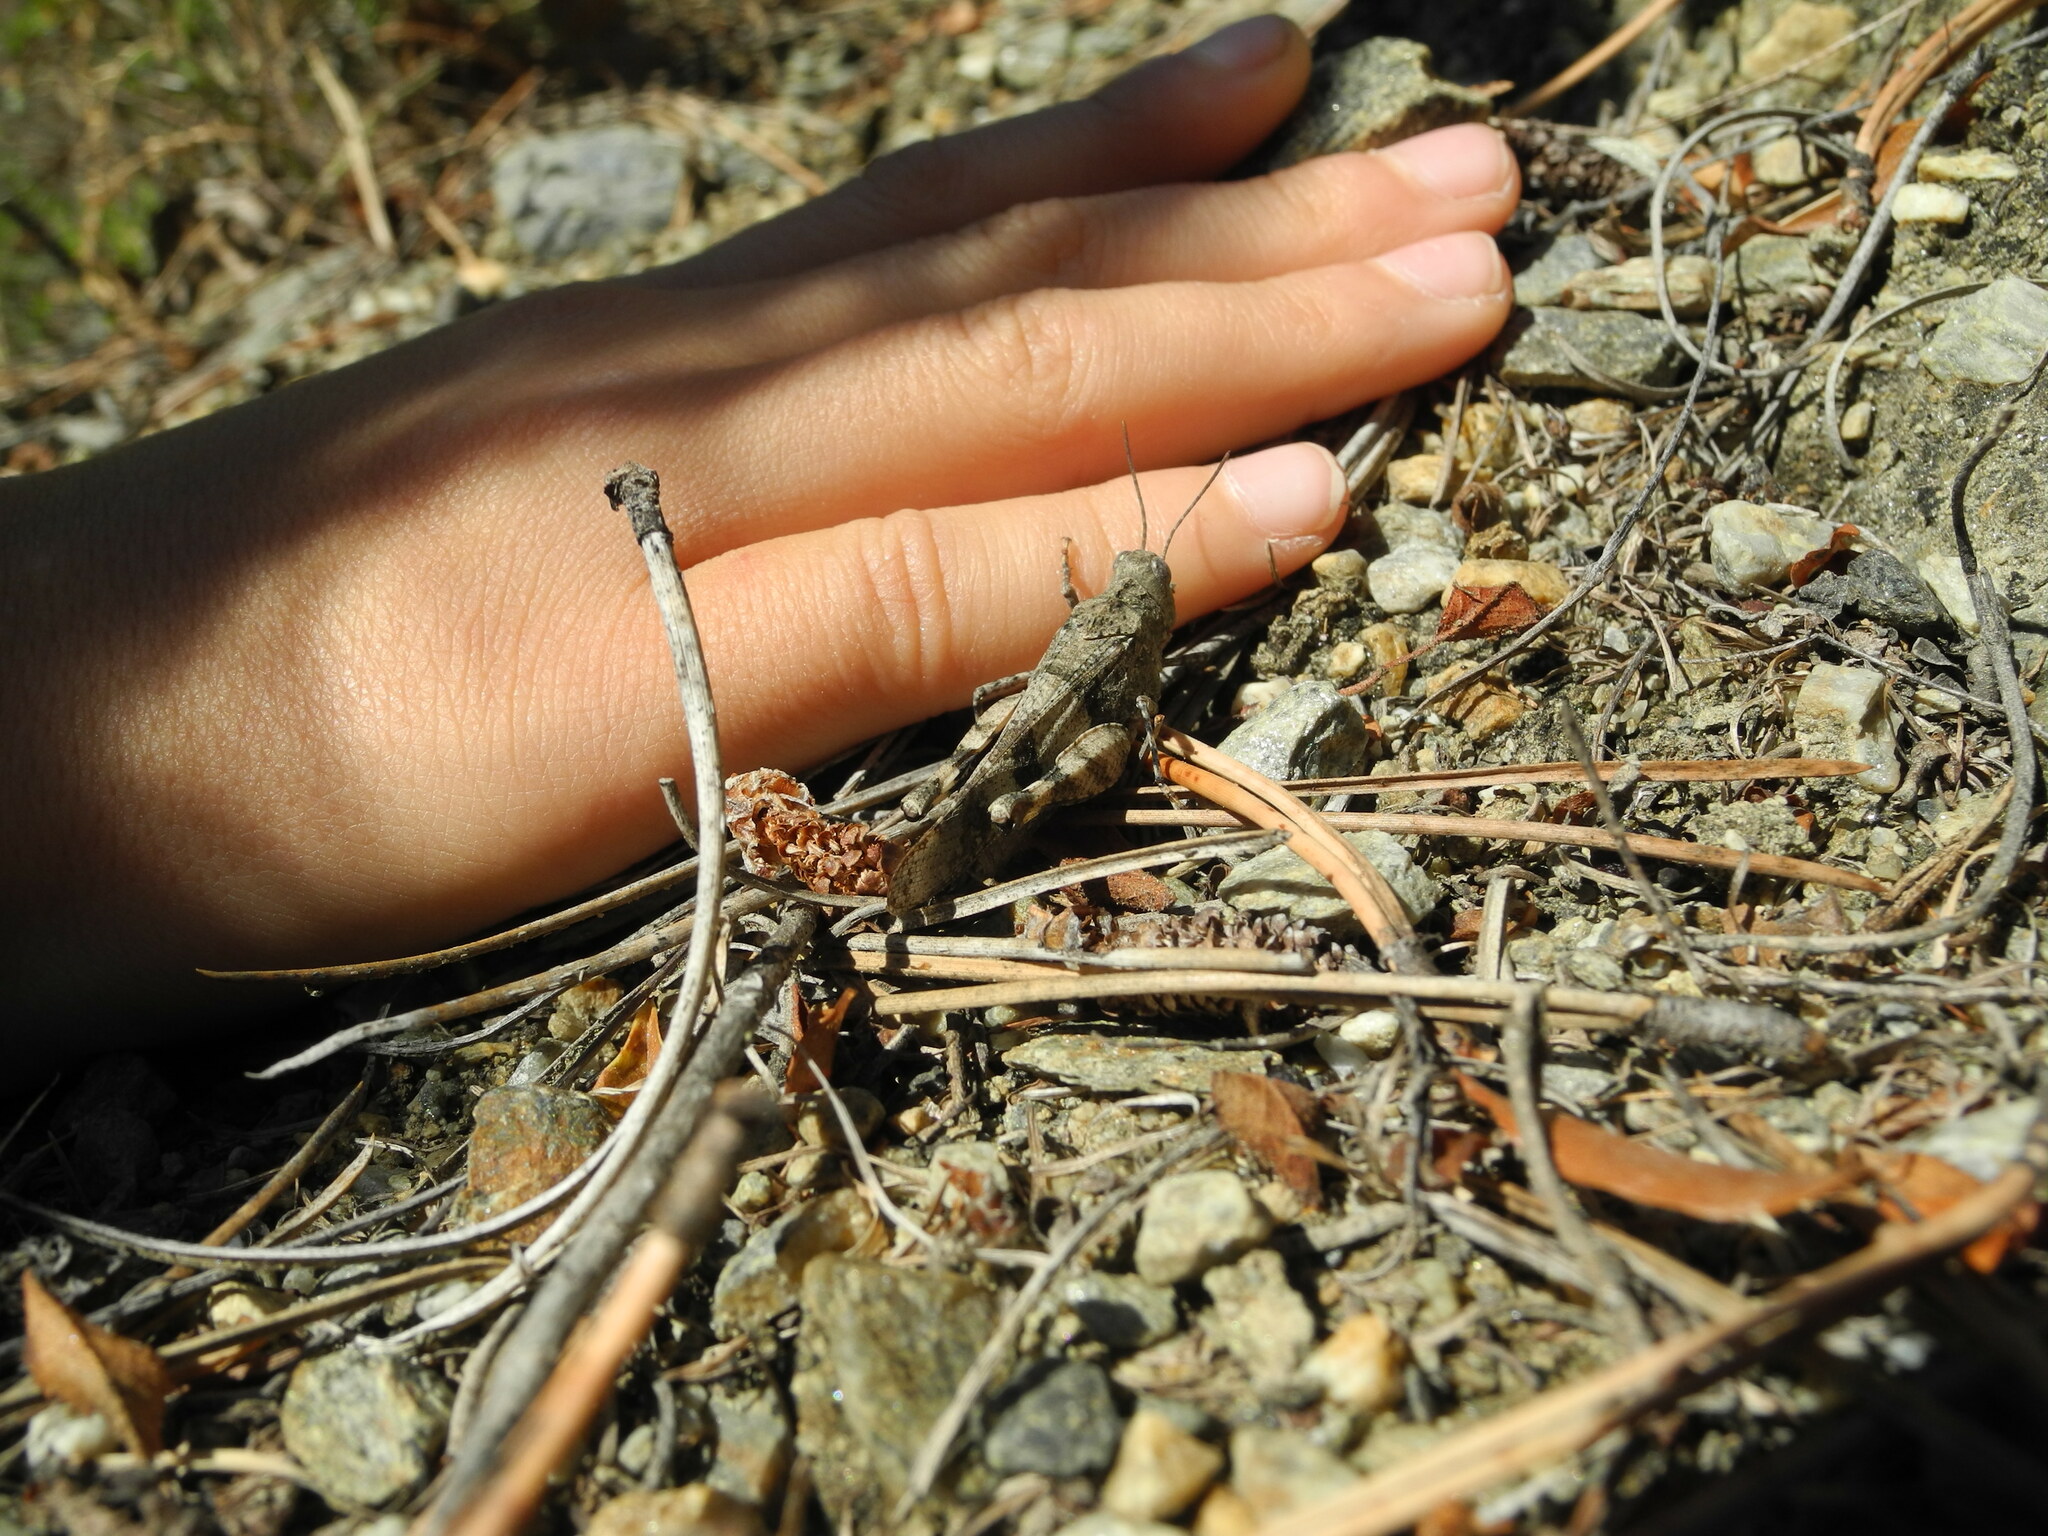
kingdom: Animalia
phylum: Arthropoda
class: Insecta
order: Orthoptera
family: Acrididae
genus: Oedipoda
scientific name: Oedipoda caerulescens
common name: Blue-winged grasshopper
